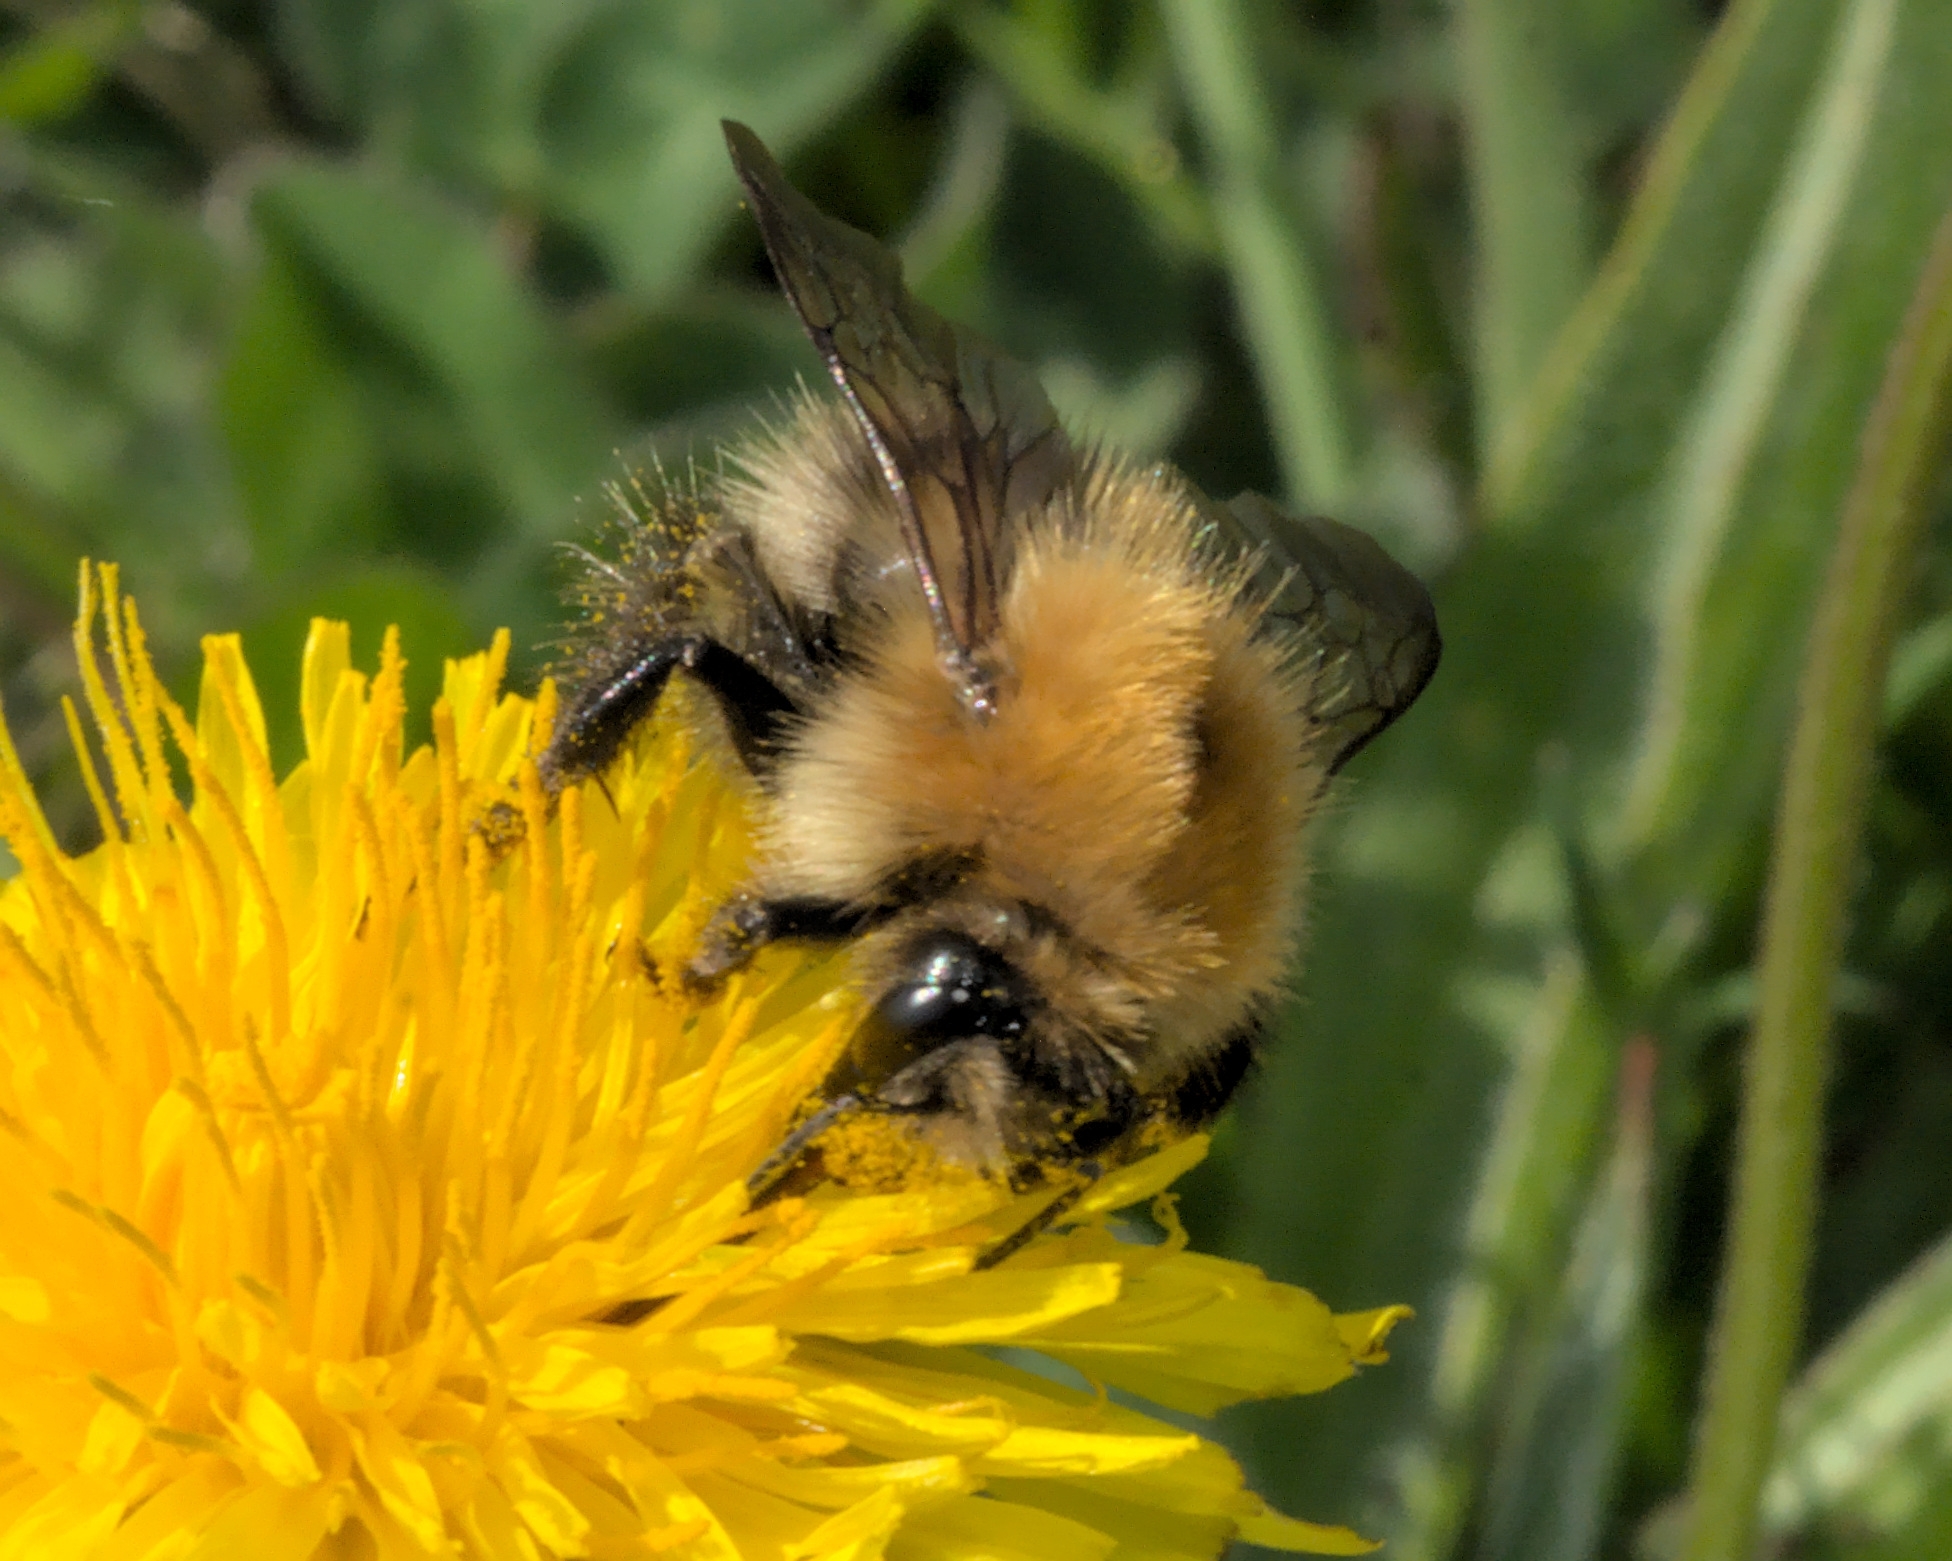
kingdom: Animalia
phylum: Arthropoda
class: Insecta
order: Hymenoptera
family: Apidae
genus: Bombus
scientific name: Bombus pascuorum
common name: Common carder bee
